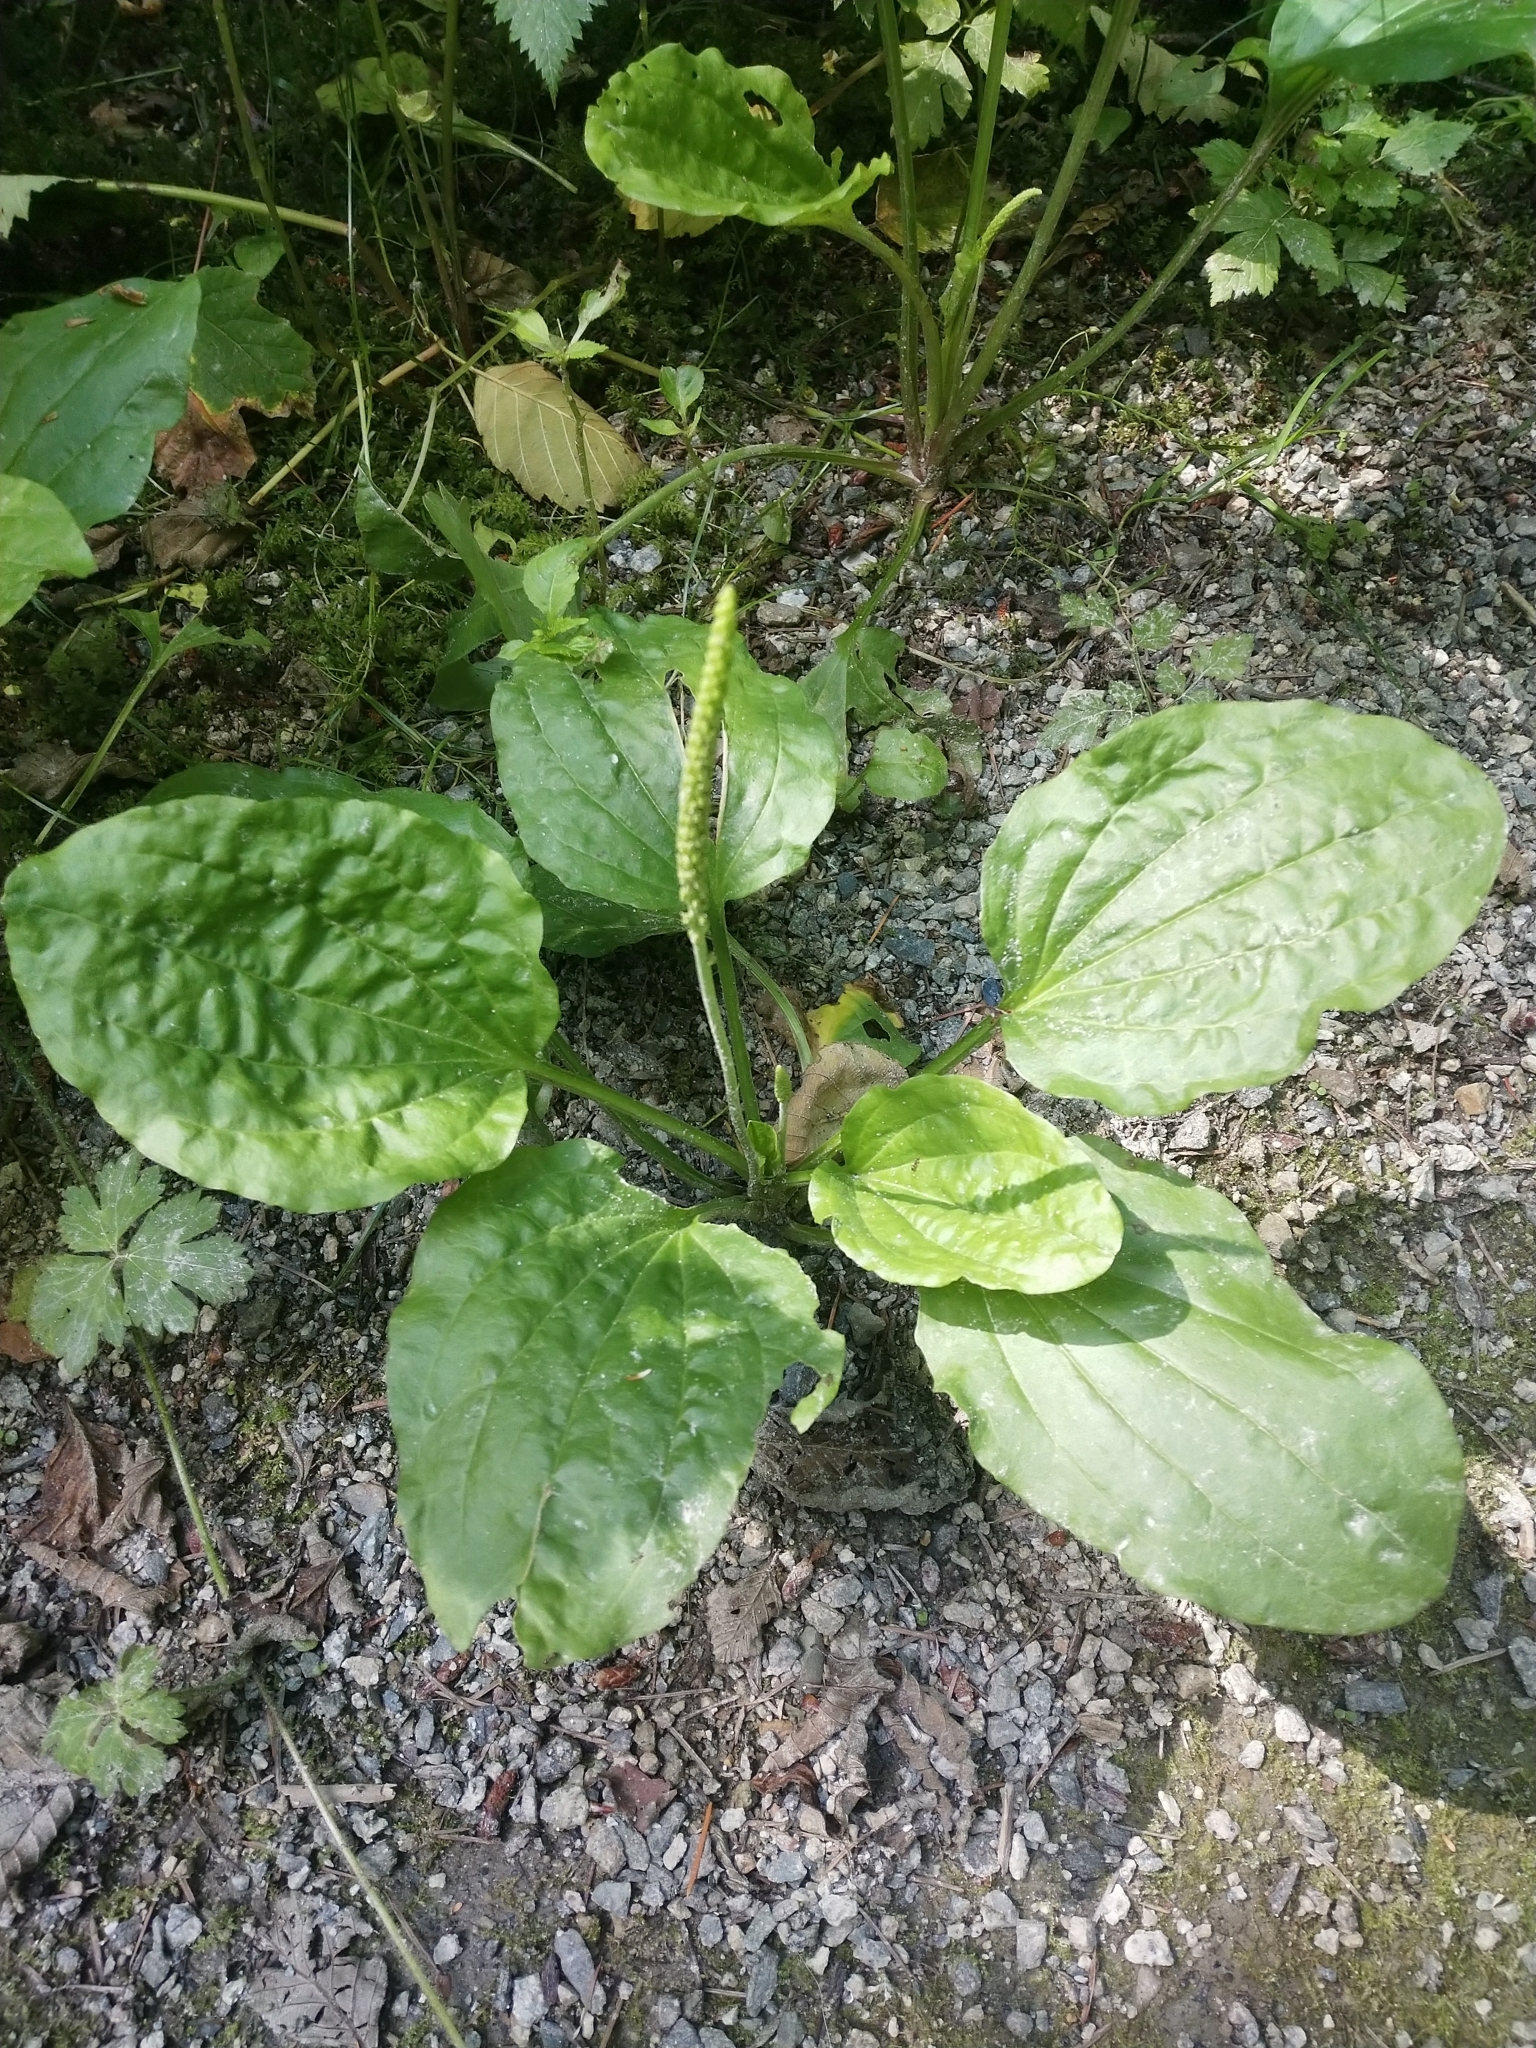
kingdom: Plantae
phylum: Tracheophyta
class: Magnoliopsida
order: Lamiales
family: Plantaginaceae
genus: Plantago
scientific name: Plantago major
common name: Common plantain
